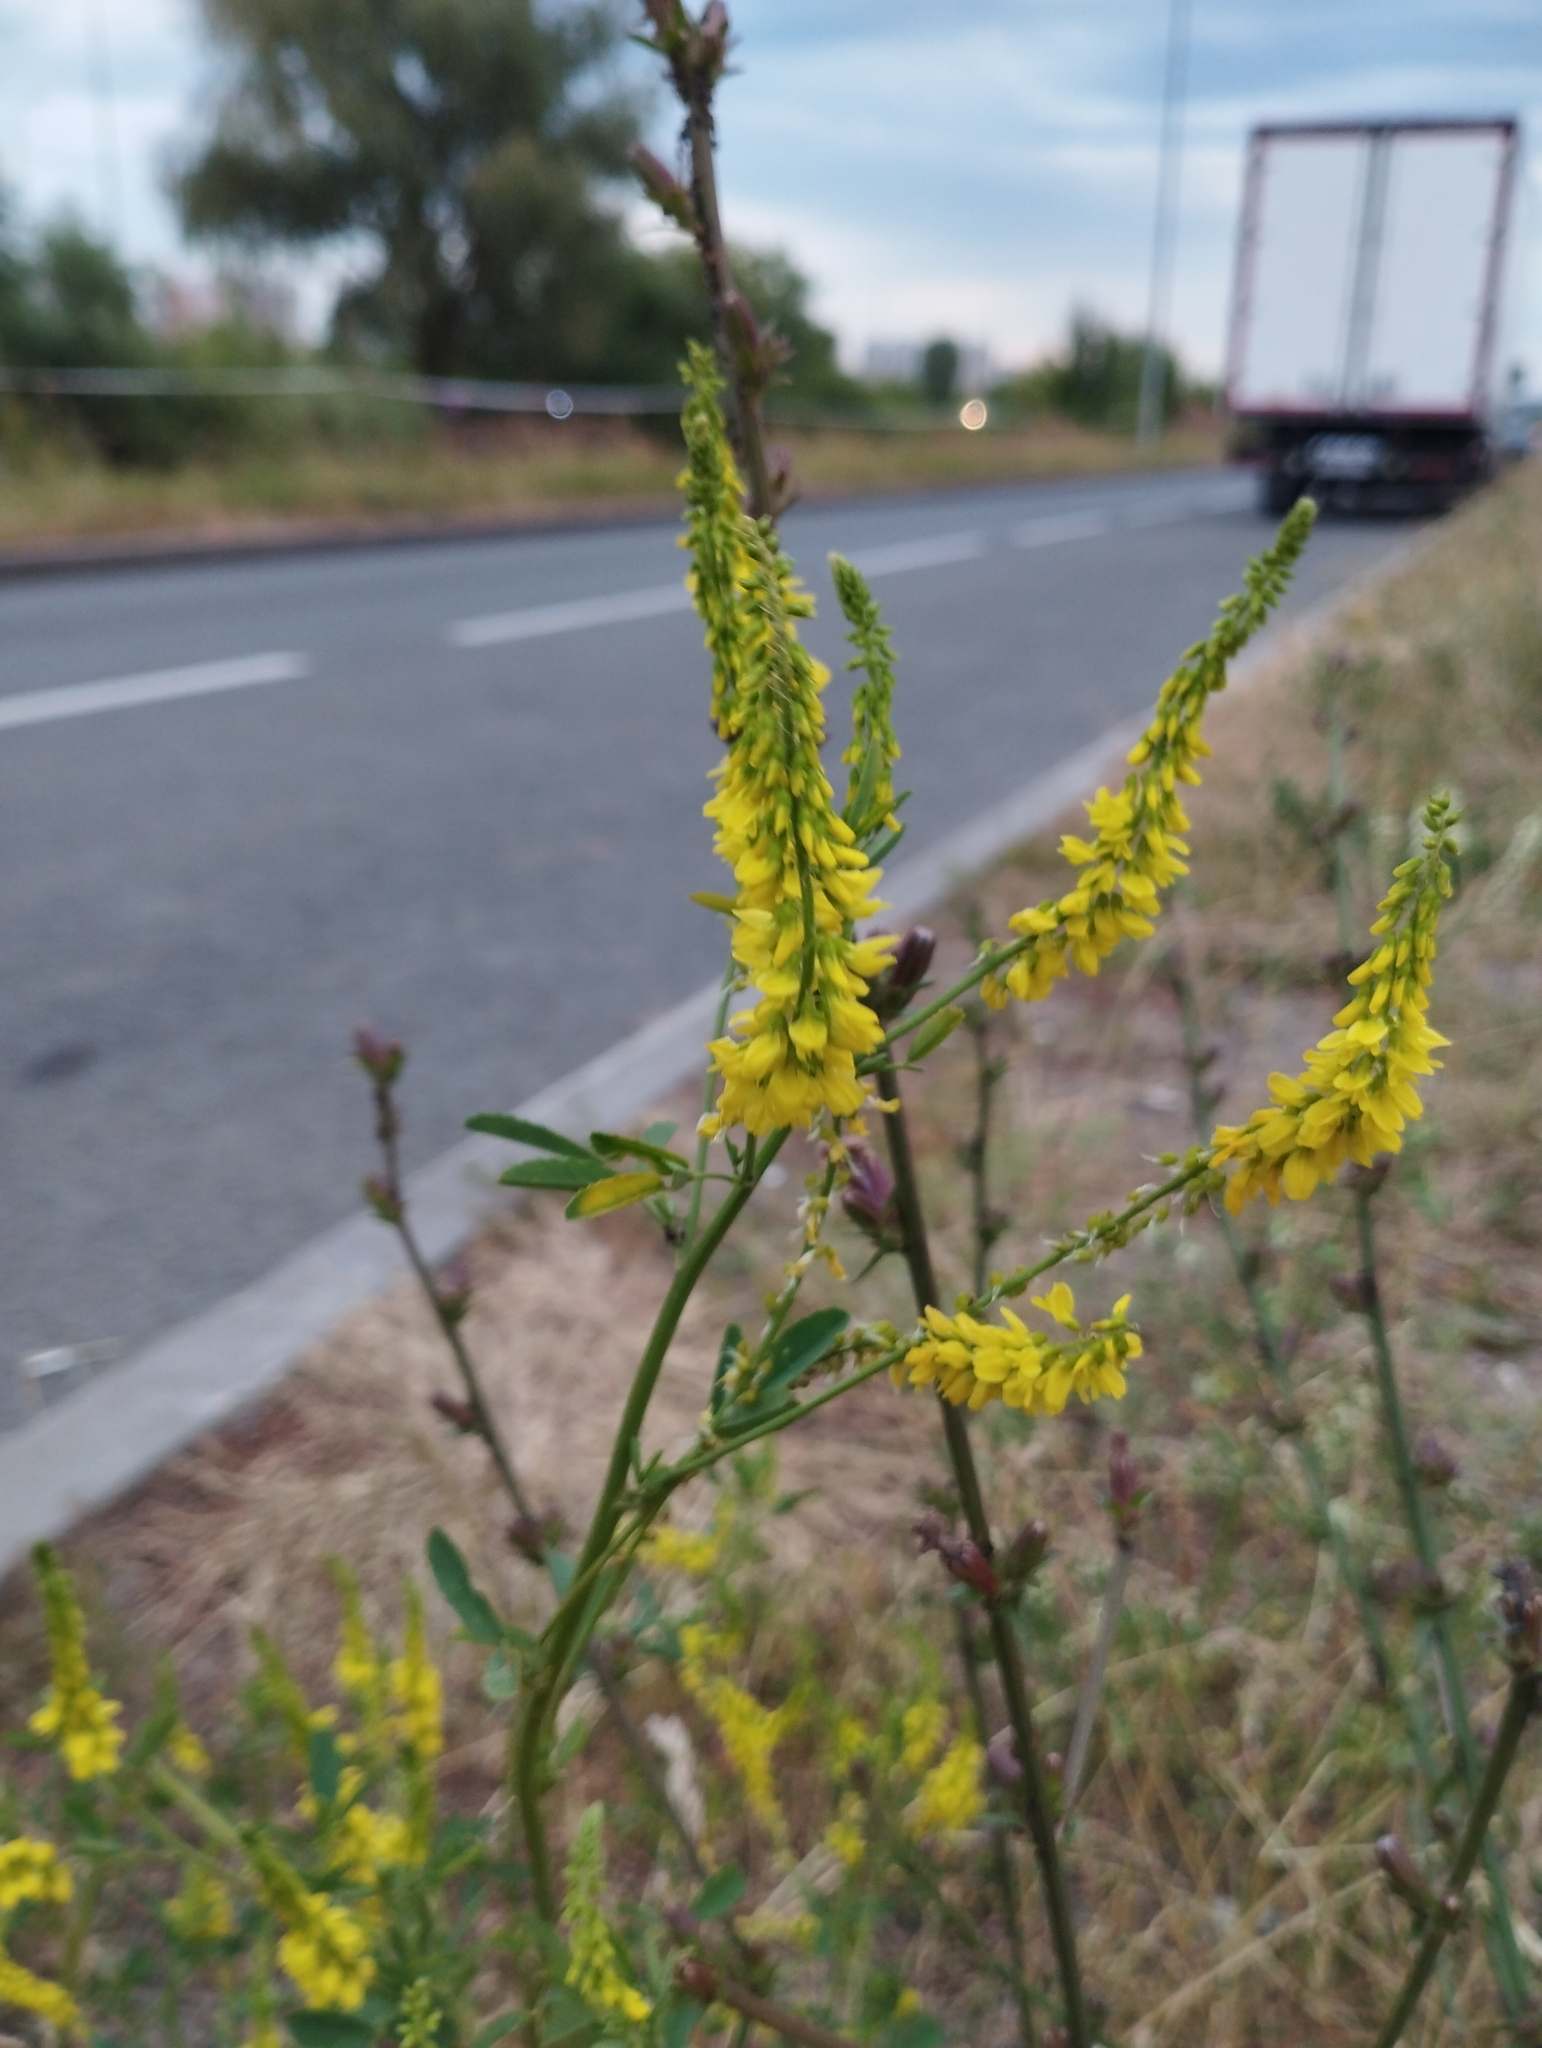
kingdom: Plantae
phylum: Tracheophyta
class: Magnoliopsida
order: Fabales
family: Fabaceae
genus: Melilotus
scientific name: Melilotus officinalis
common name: Sweetclover
